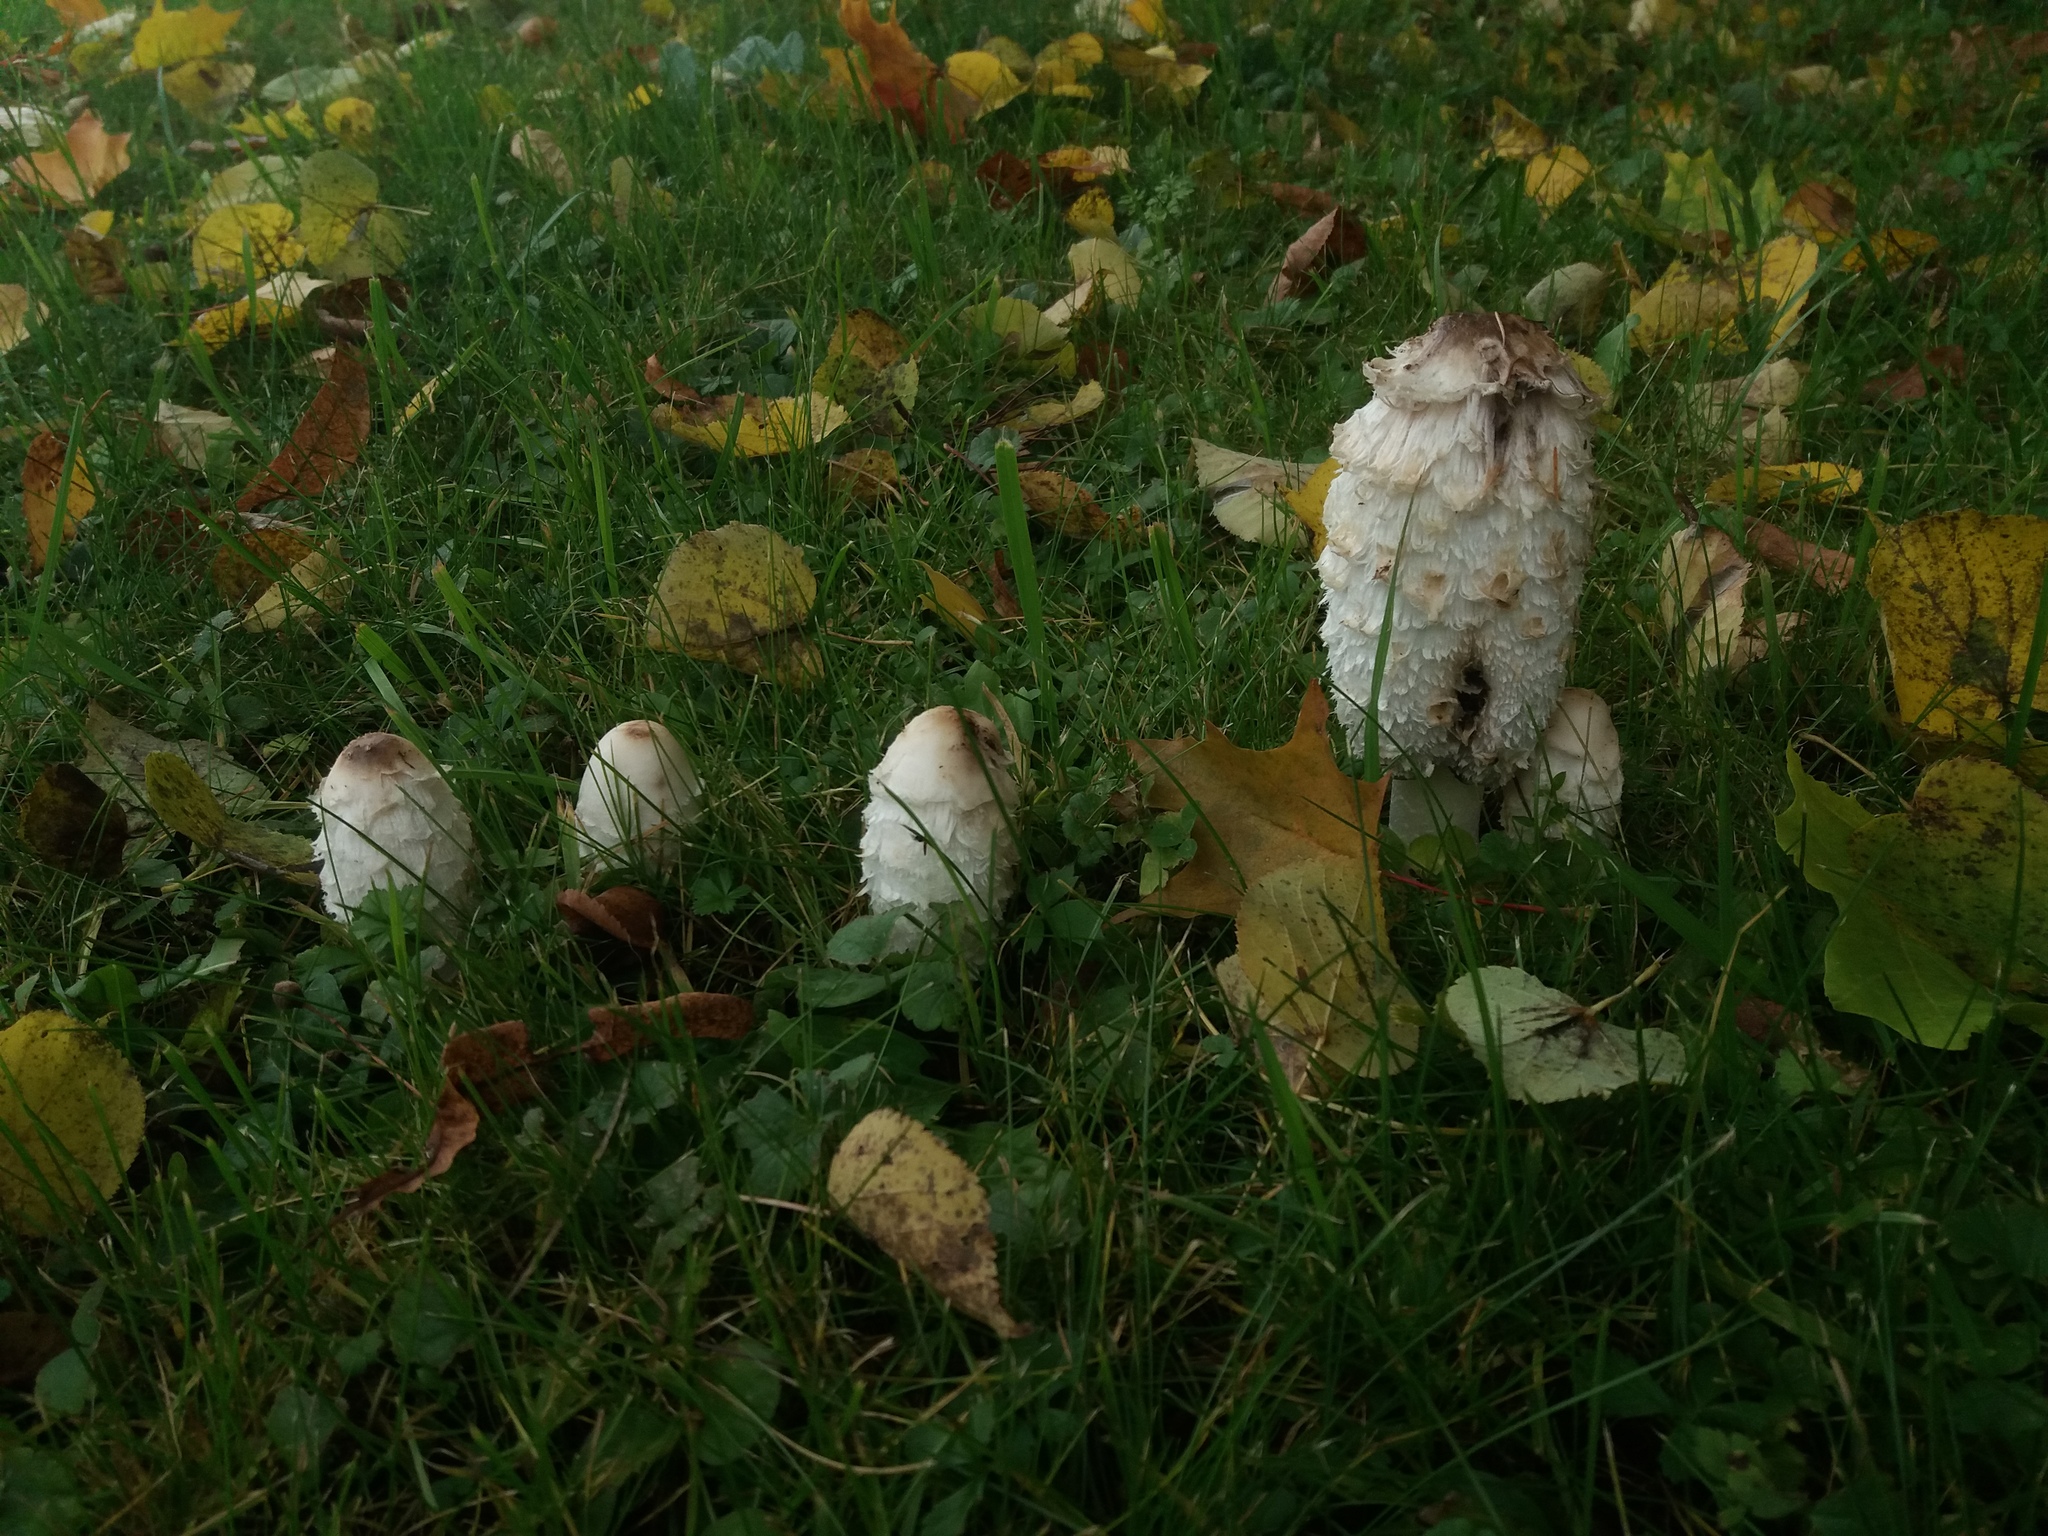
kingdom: Fungi
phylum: Basidiomycota
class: Agaricomycetes
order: Agaricales
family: Agaricaceae
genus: Coprinus
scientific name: Coprinus comatus
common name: Lawyer's wig
